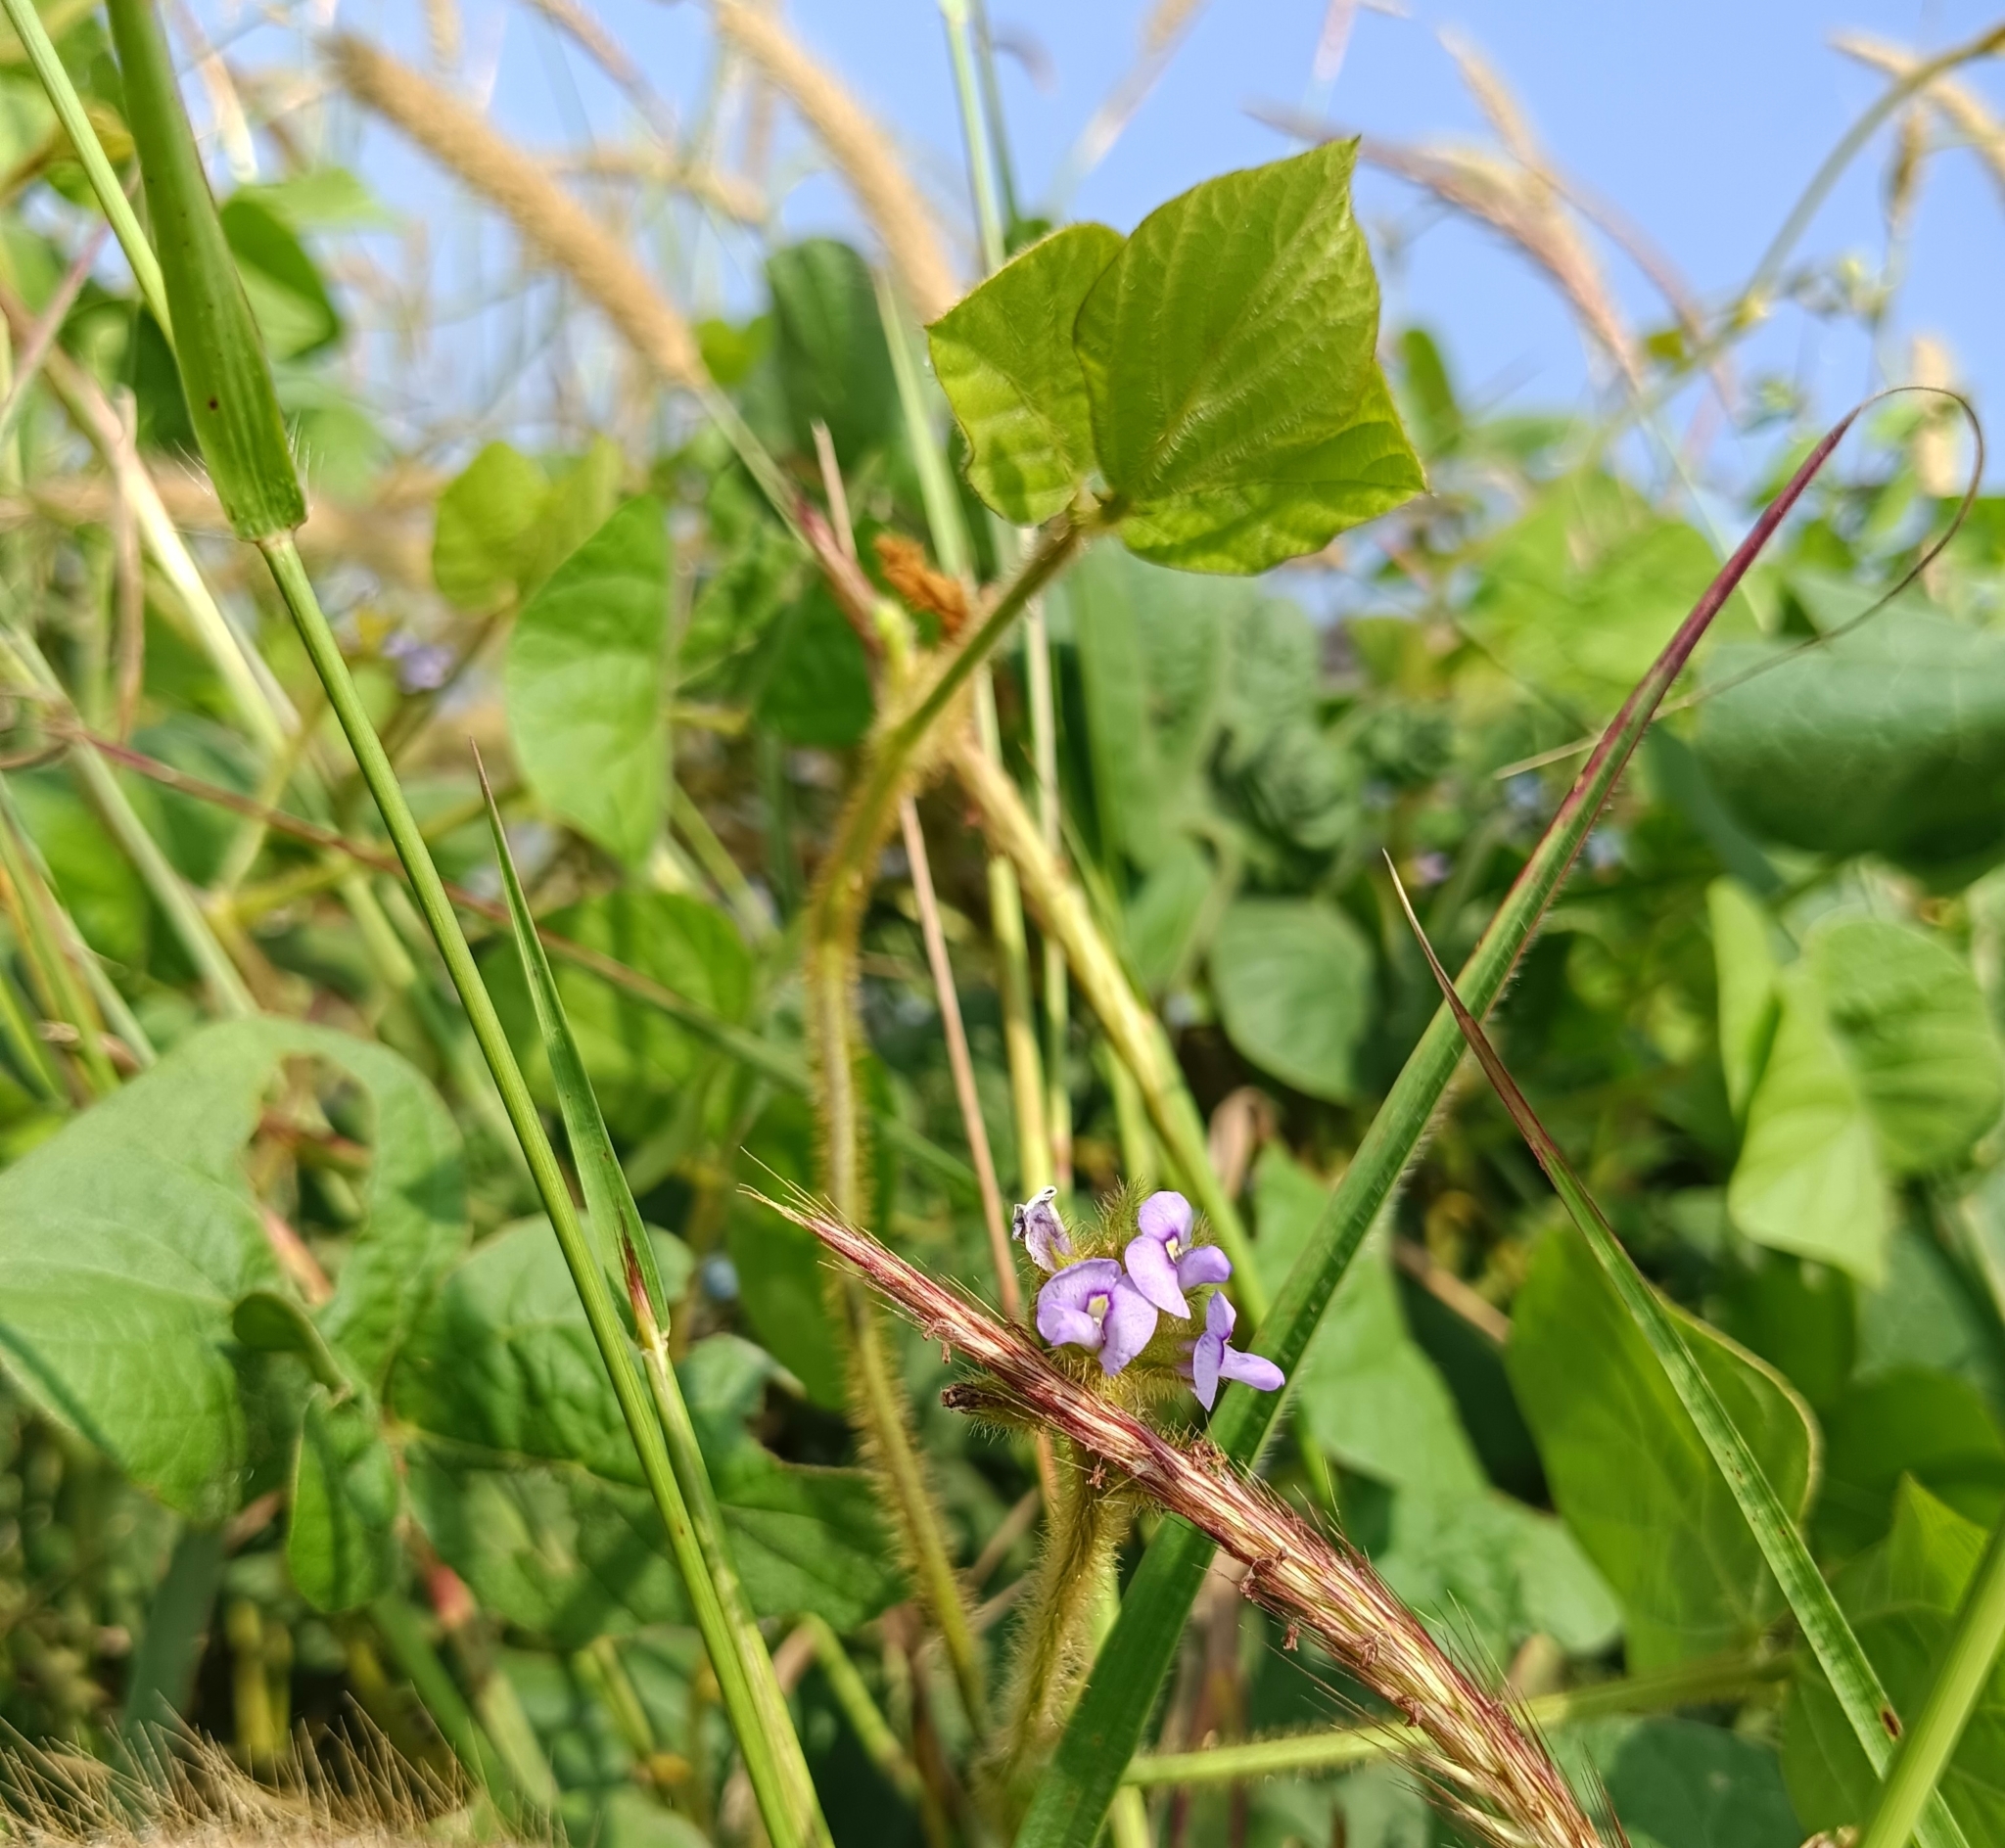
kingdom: Plantae
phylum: Tracheophyta
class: Magnoliopsida
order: Fabales
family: Fabaceae
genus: Calopogonium
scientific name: Calopogonium mucunoides
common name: Calopo
